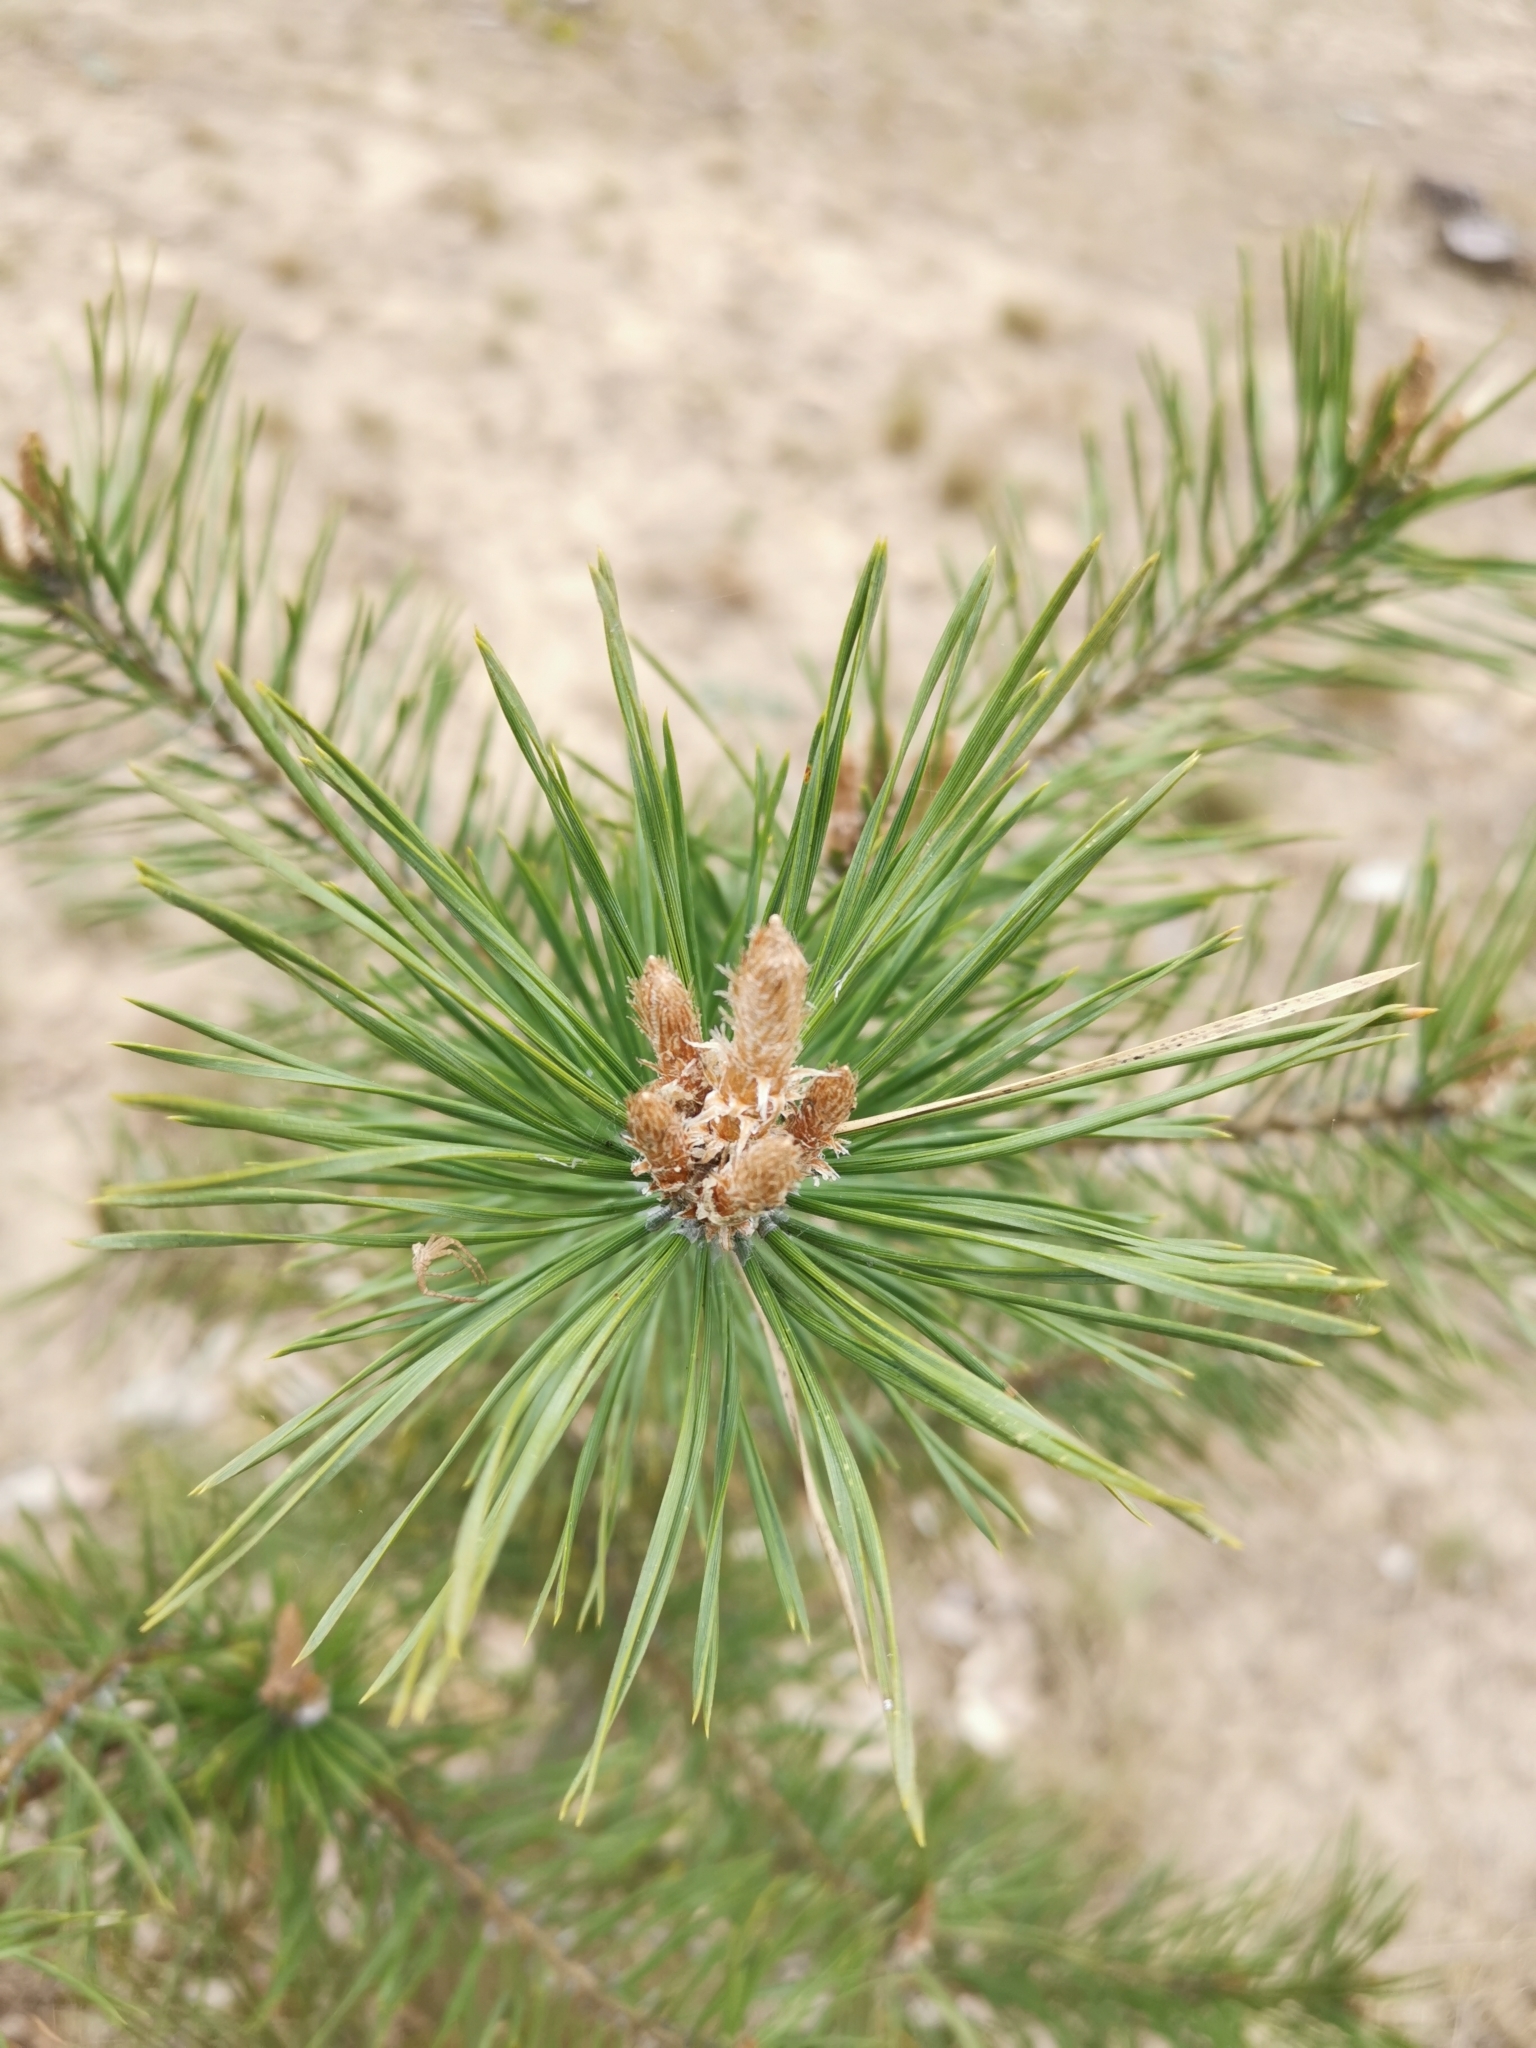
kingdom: Plantae
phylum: Tracheophyta
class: Pinopsida
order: Pinales
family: Pinaceae
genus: Pinus
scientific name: Pinus sylvestris
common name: Scots pine
